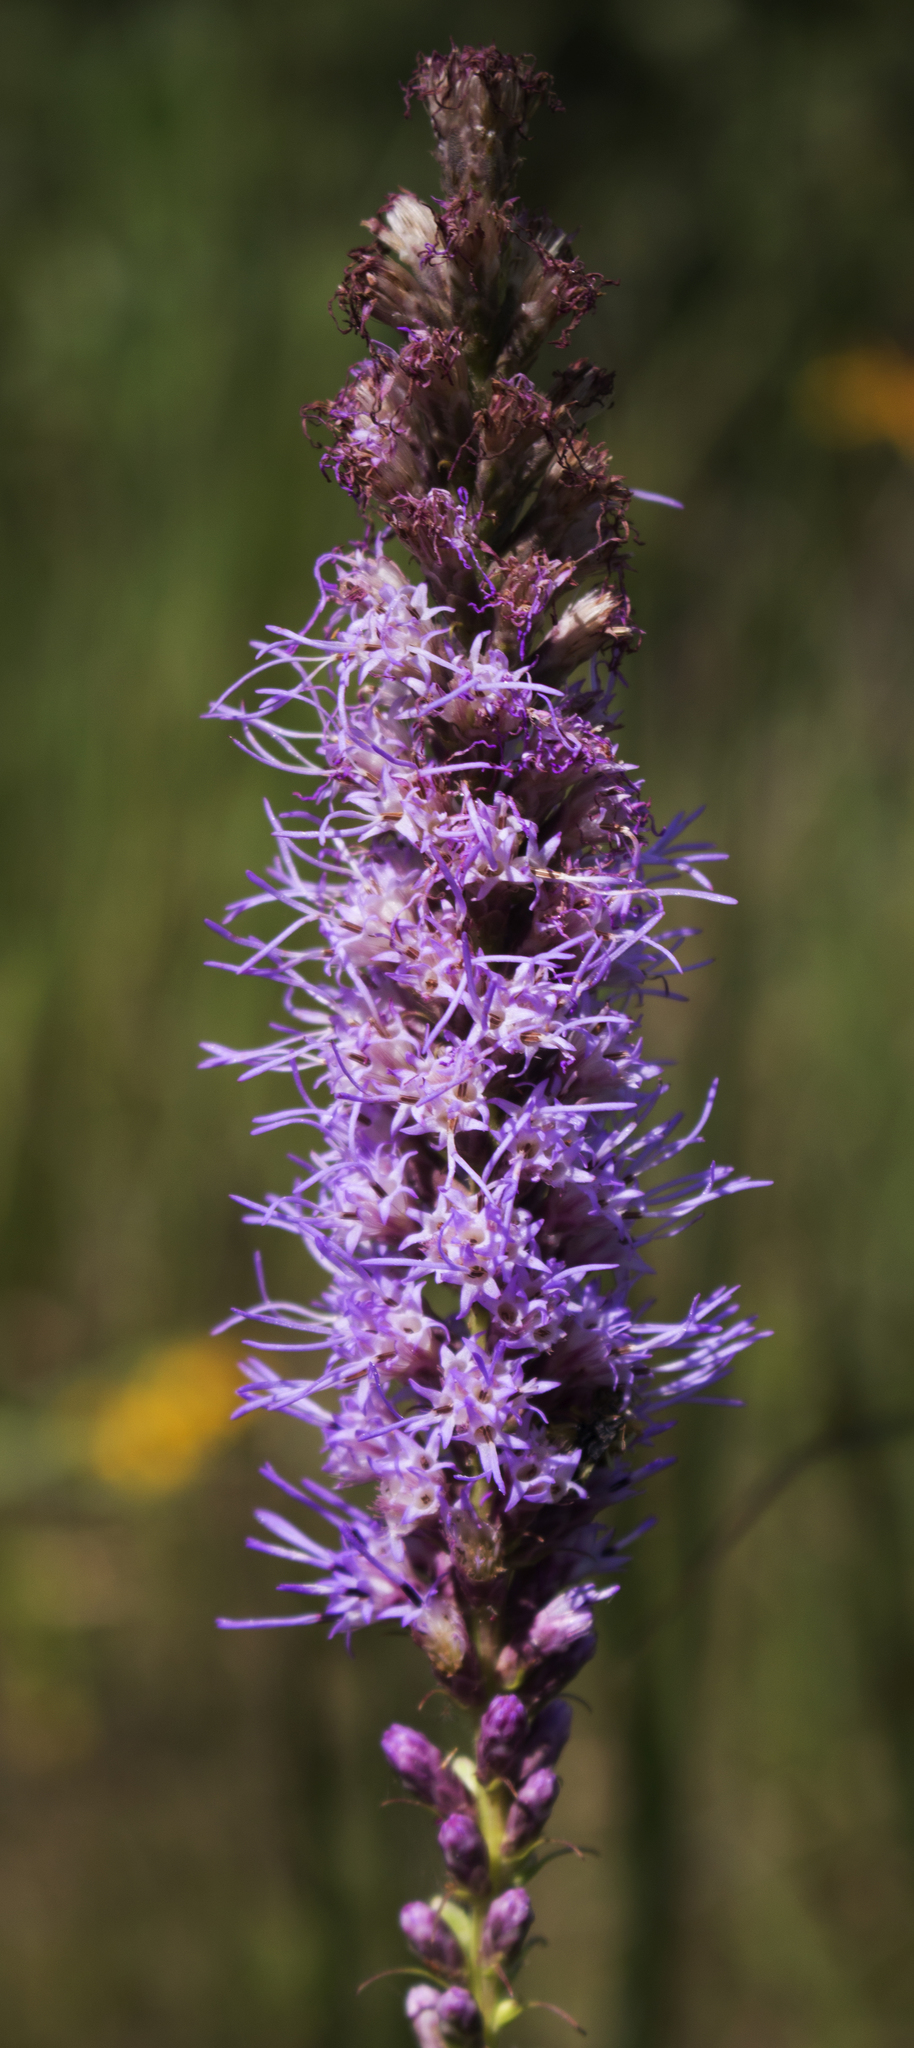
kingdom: Plantae
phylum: Tracheophyta
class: Magnoliopsida
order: Asterales
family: Asteraceae
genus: Liatris
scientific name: Liatris pycnostachya
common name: Cattail gayfeather
